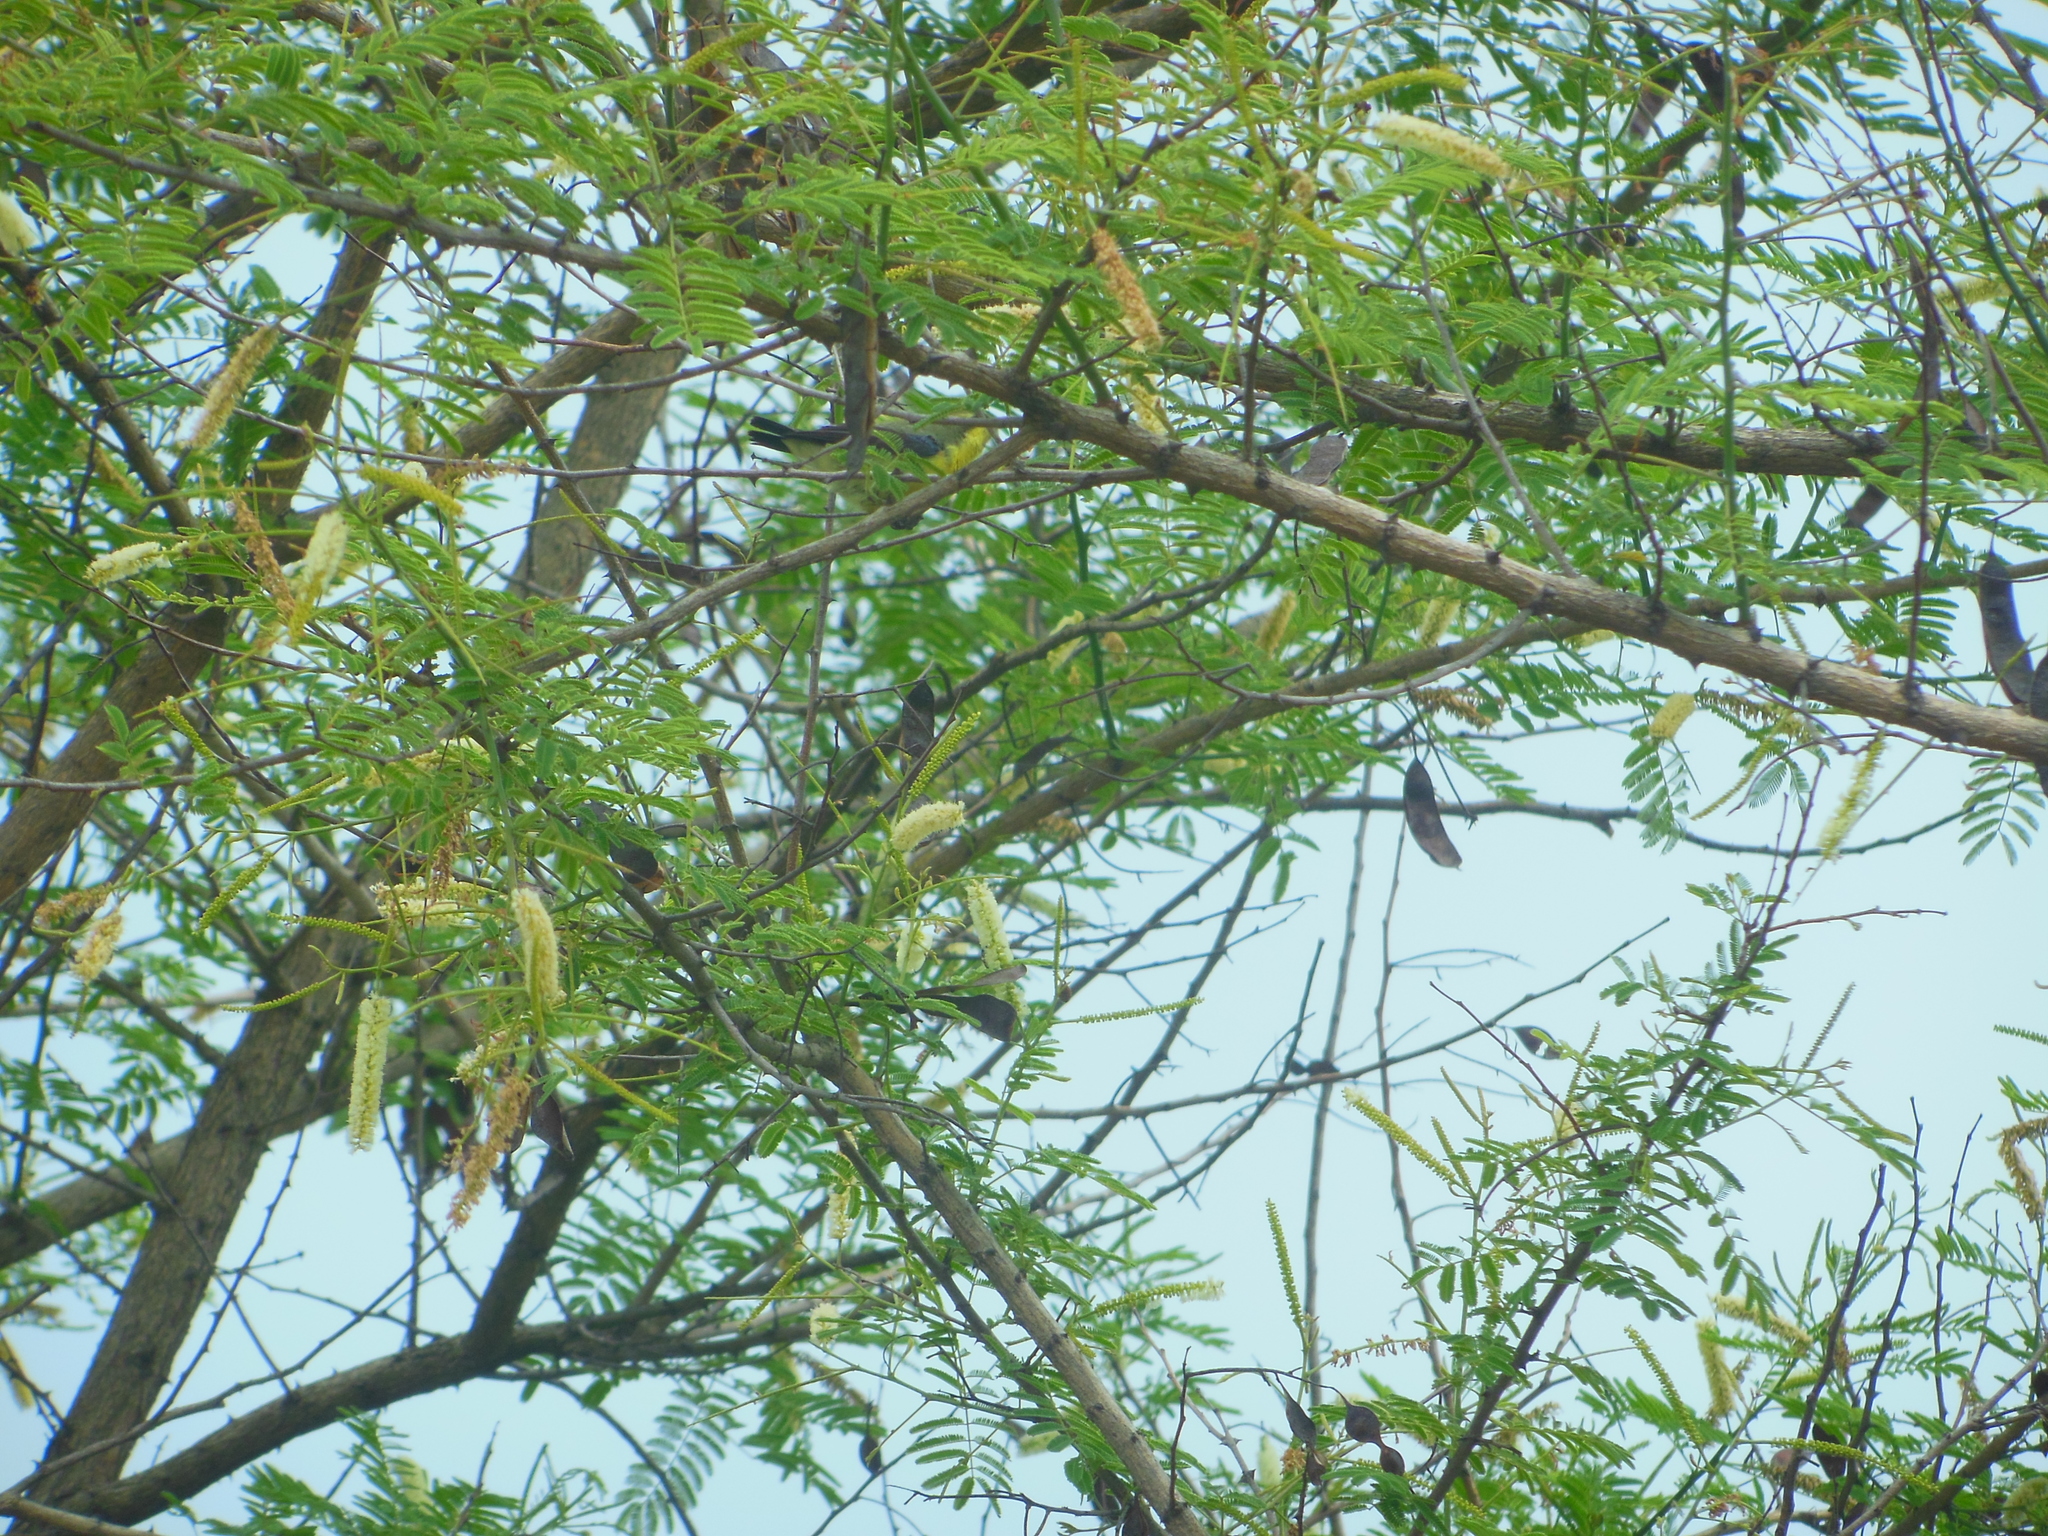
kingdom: Animalia
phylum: Chordata
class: Aves
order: Passeriformes
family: Nectariniidae
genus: Cinnyris
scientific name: Cinnyris asiaticus
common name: Purple sunbird
